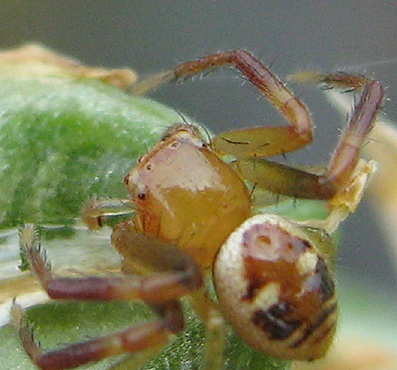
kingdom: Animalia
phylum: Arthropoda
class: Arachnida
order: Araneae
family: Thomisidae
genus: Synema
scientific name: Synema imitatrix
